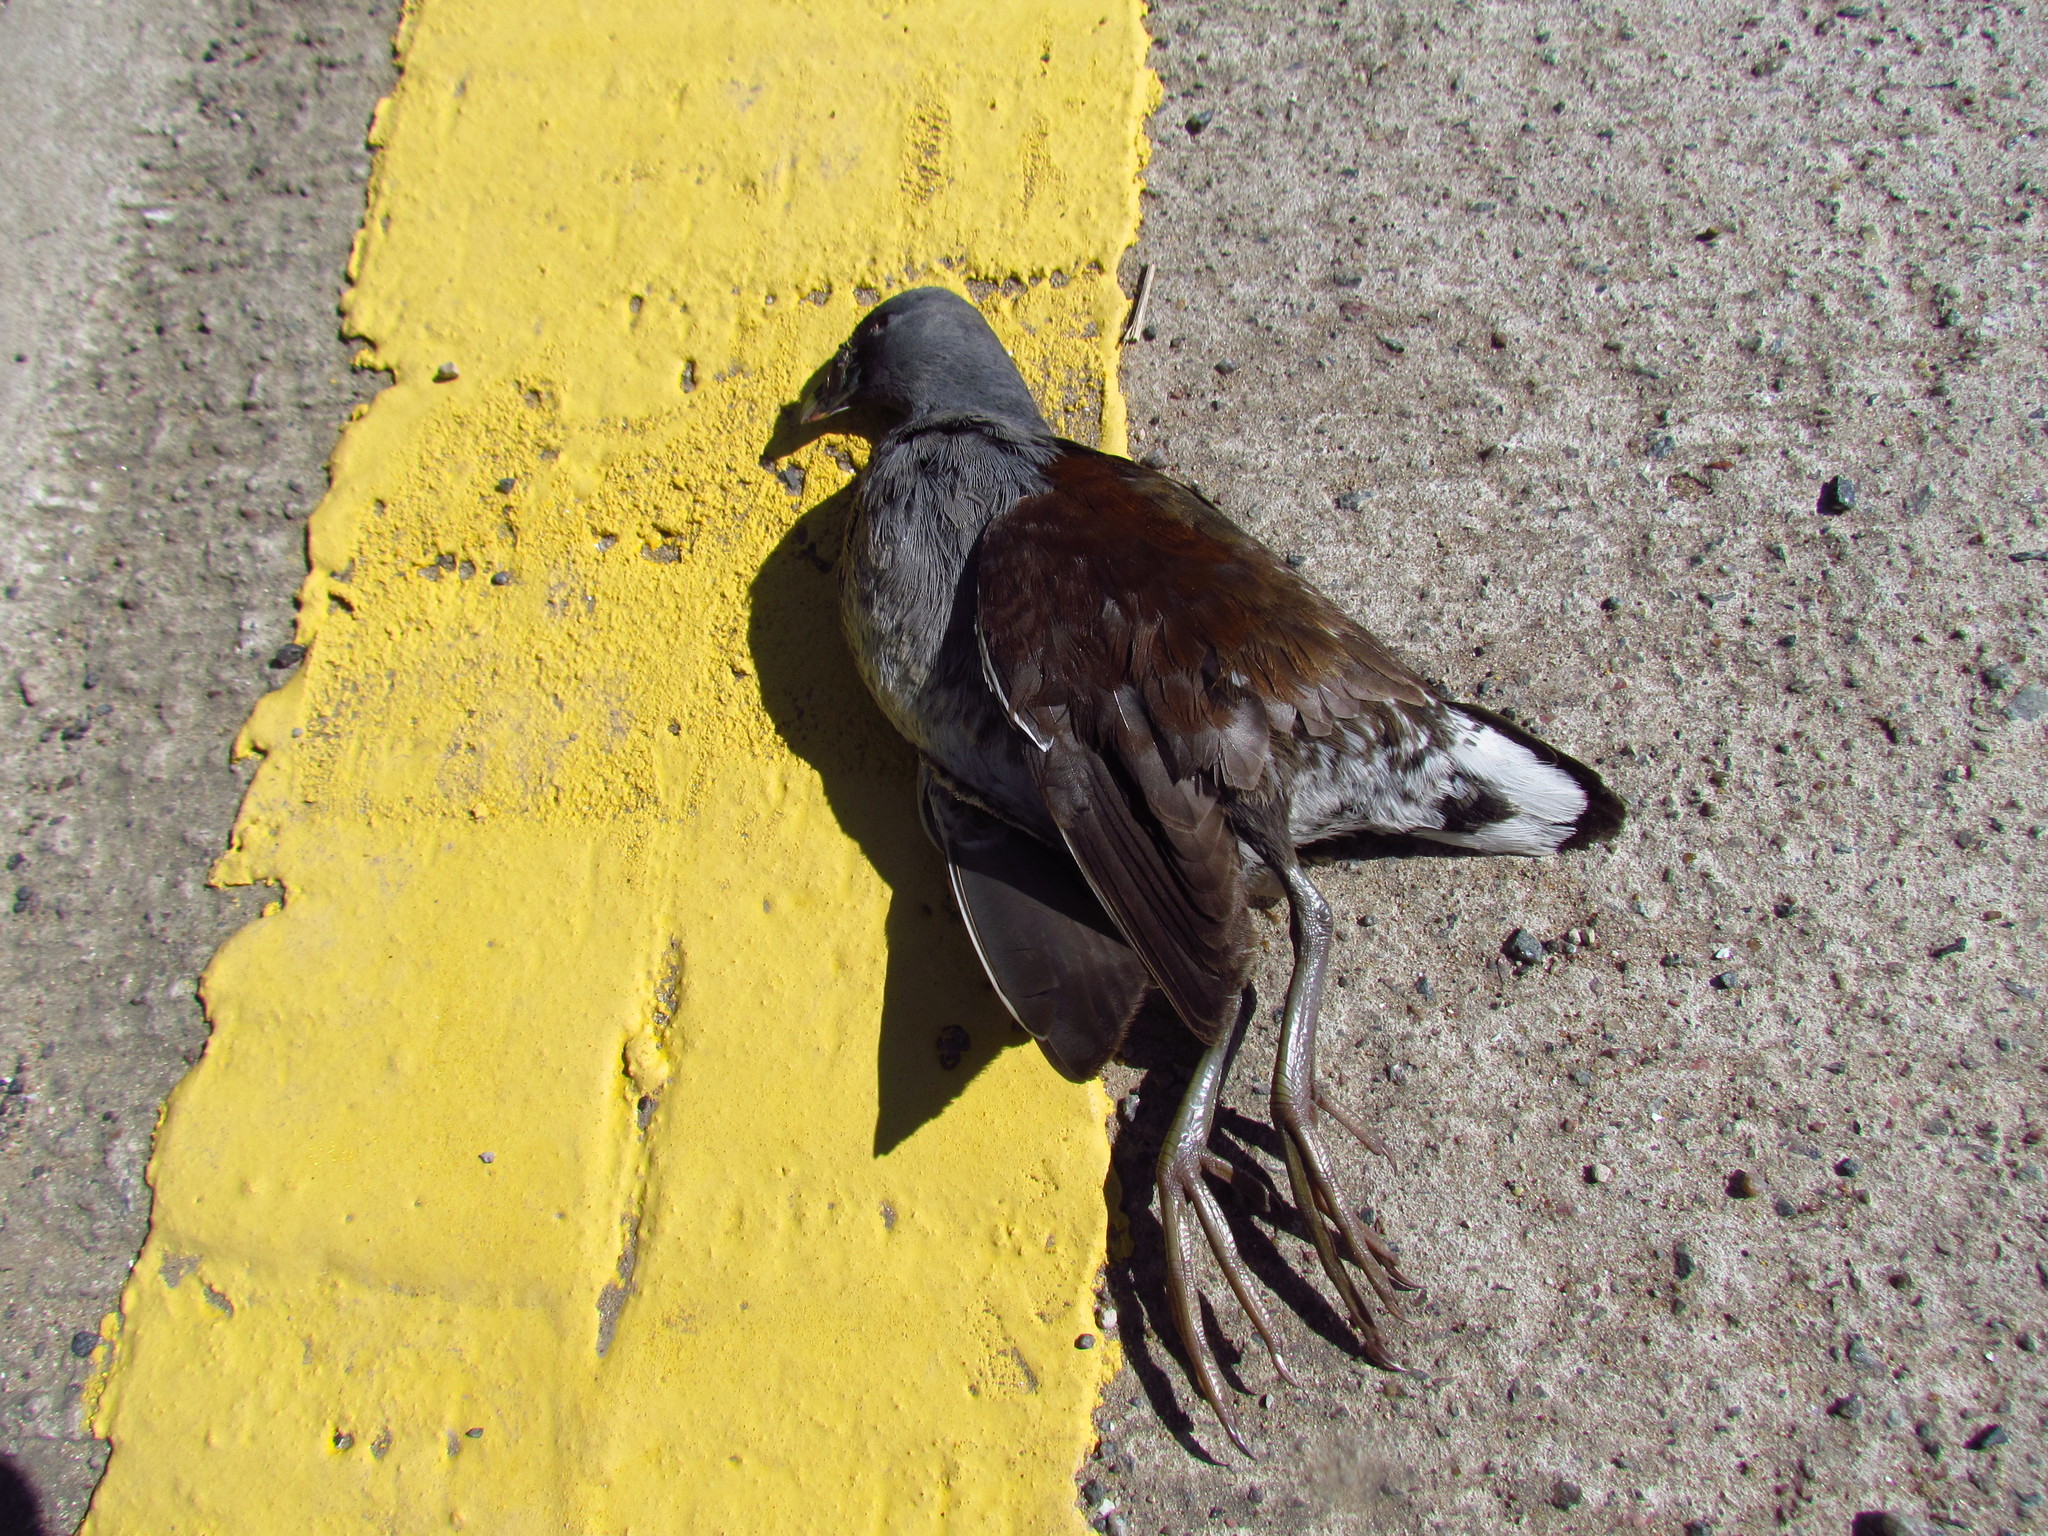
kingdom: Animalia
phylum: Chordata
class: Aves
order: Gruiformes
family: Rallidae
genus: Gallinula
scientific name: Gallinula melanops
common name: Spot-flanked gallinule
